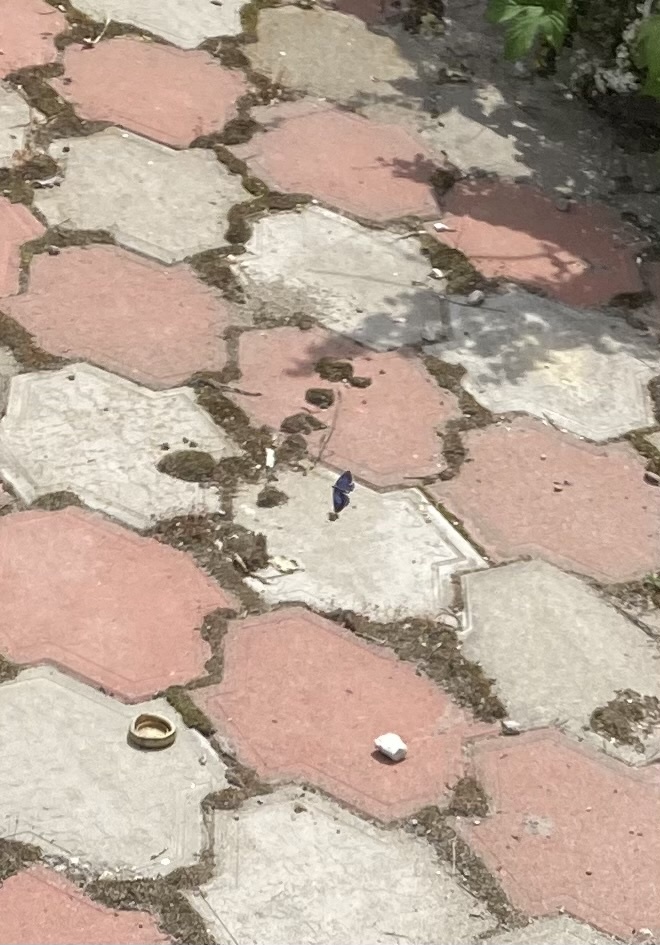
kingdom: Animalia
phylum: Arthropoda
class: Insecta
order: Lepidoptera
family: Lycaenidae
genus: Celastrina
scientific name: Celastrina argiolus
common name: Holly blue
